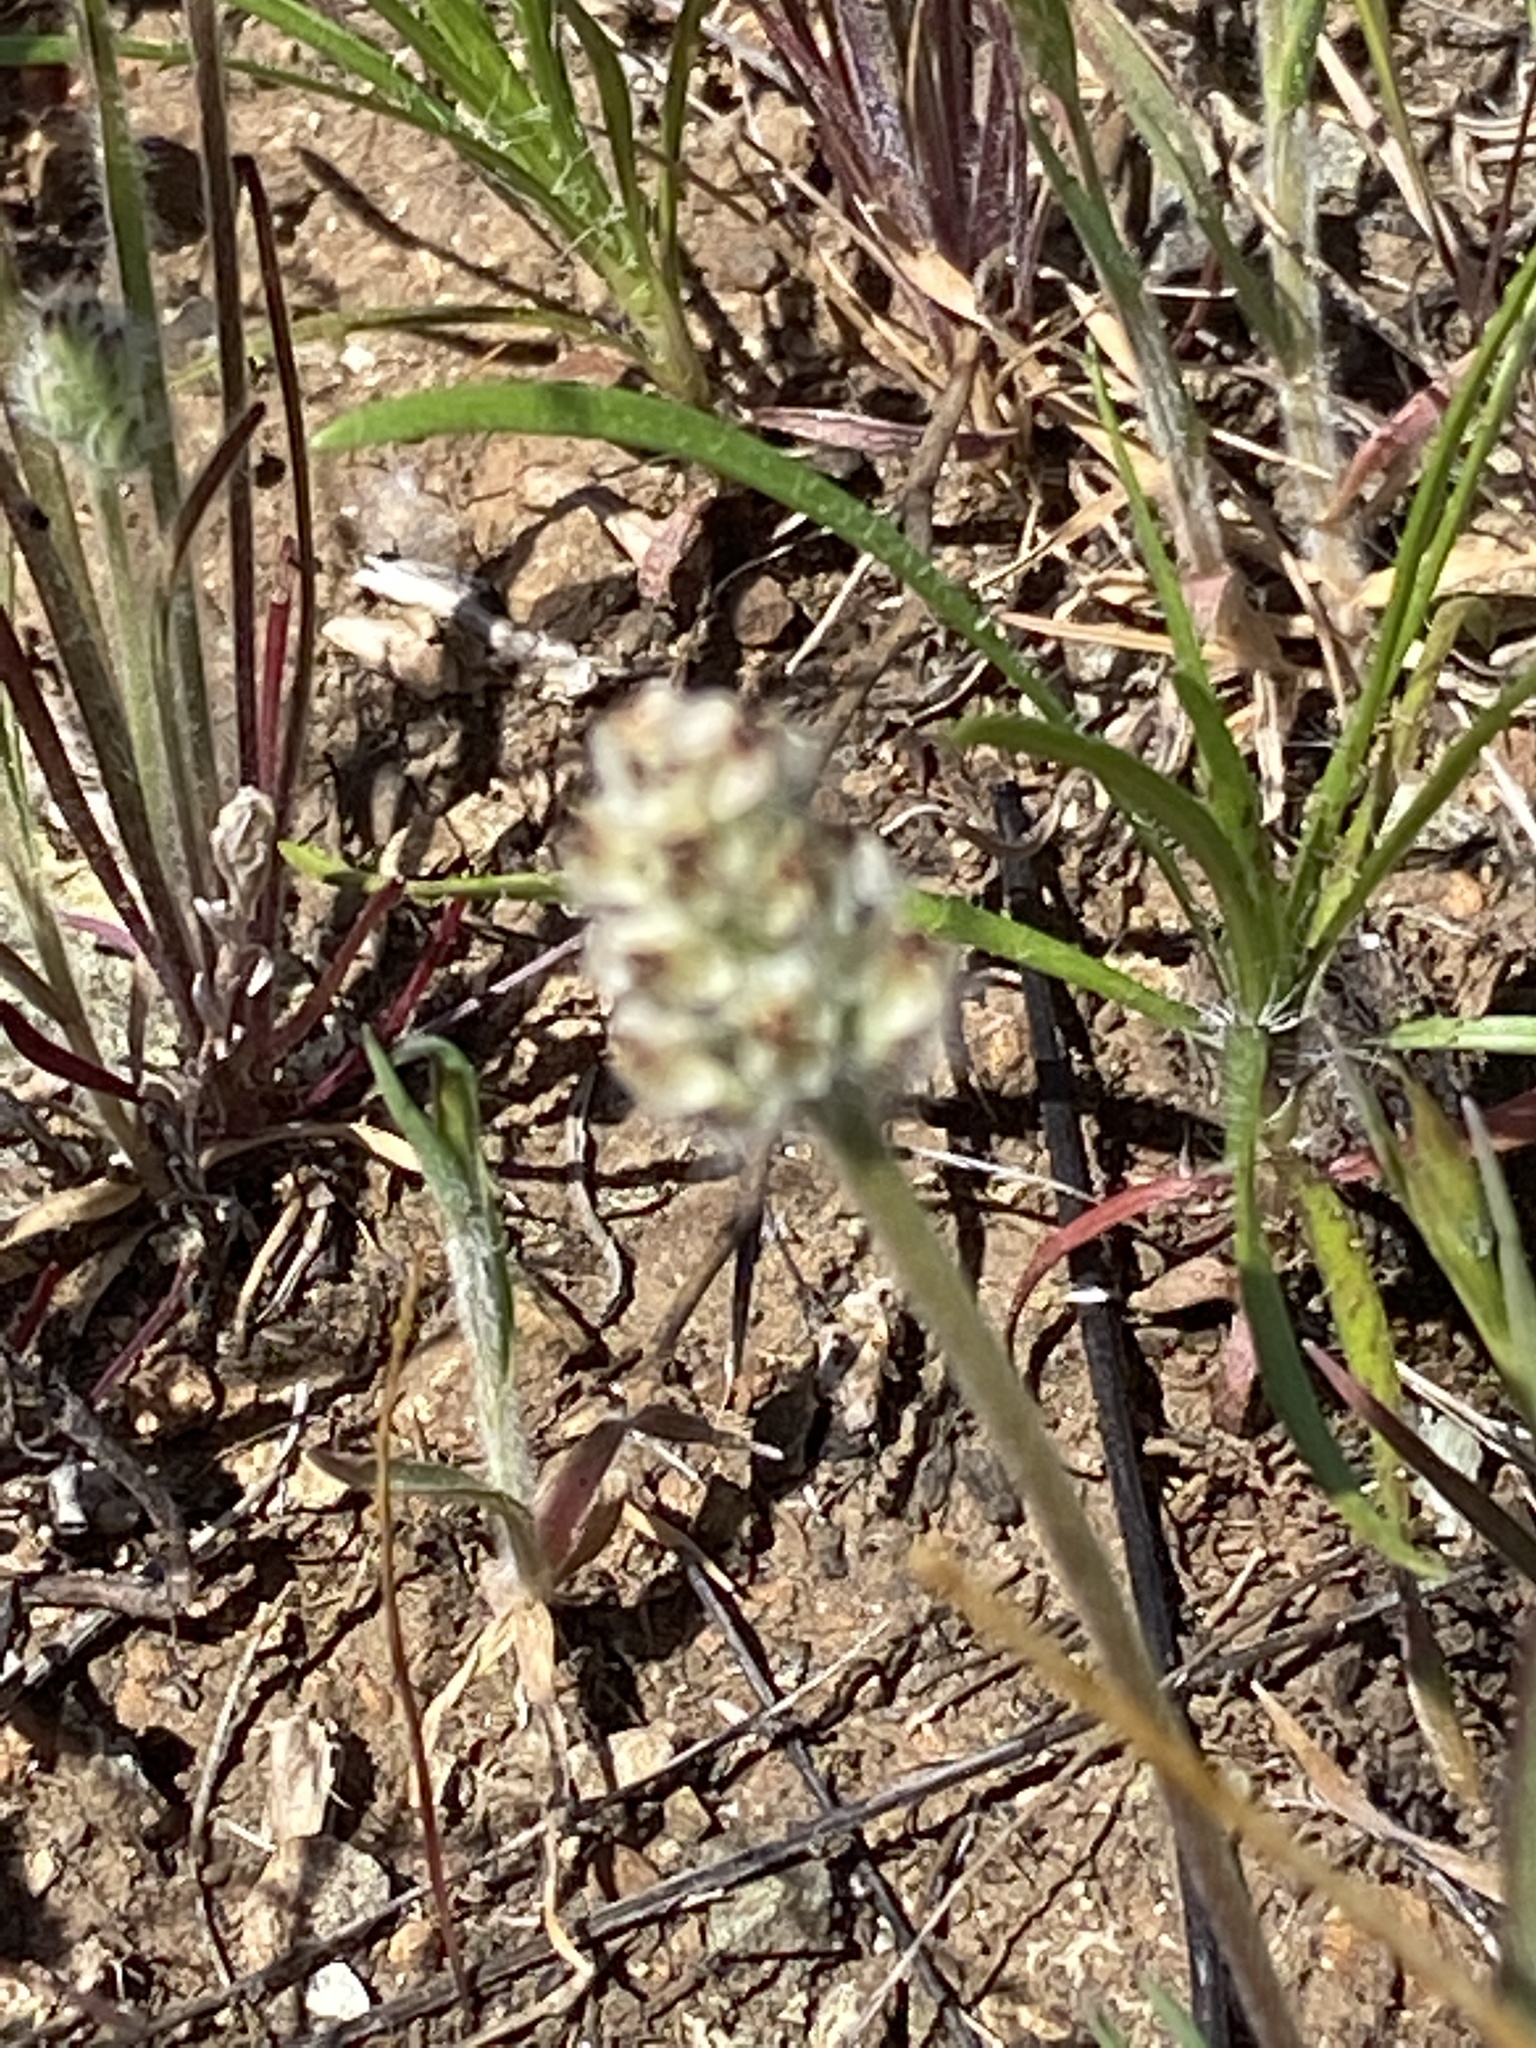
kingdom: Plantae
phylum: Tracheophyta
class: Magnoliopsida
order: Lamiales
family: Plantaginaceae
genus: Plantago
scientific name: Plantago erecta
